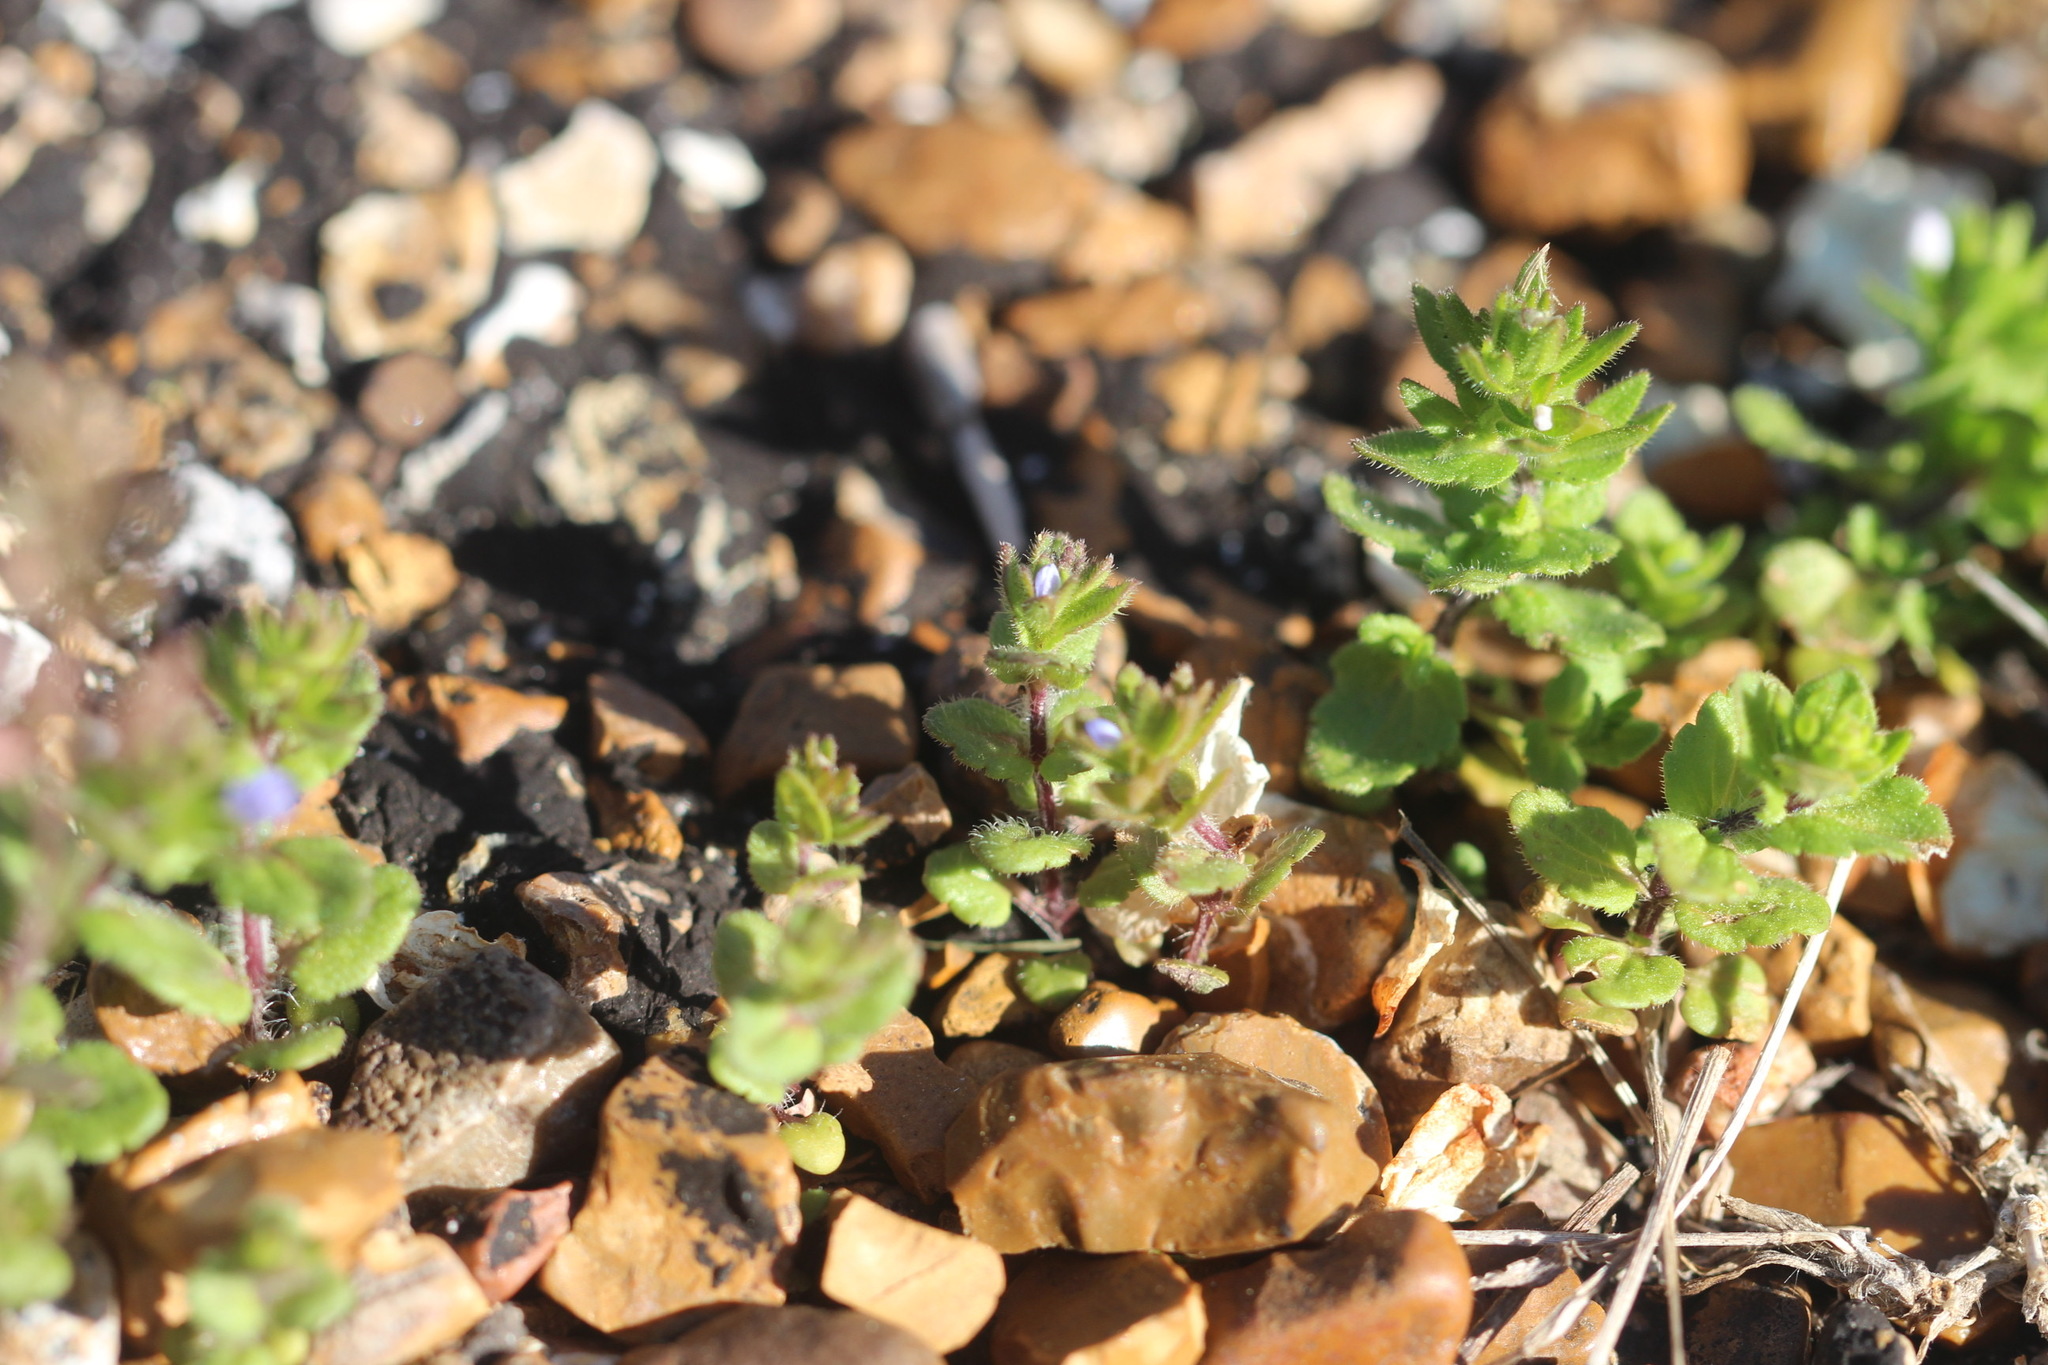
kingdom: Plantae
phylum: Tracheophyta
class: Magnoliopsida
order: Lamiales
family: Plantaginaceae
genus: Veronica
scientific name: Veronica arvensis
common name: Corn speedwell
